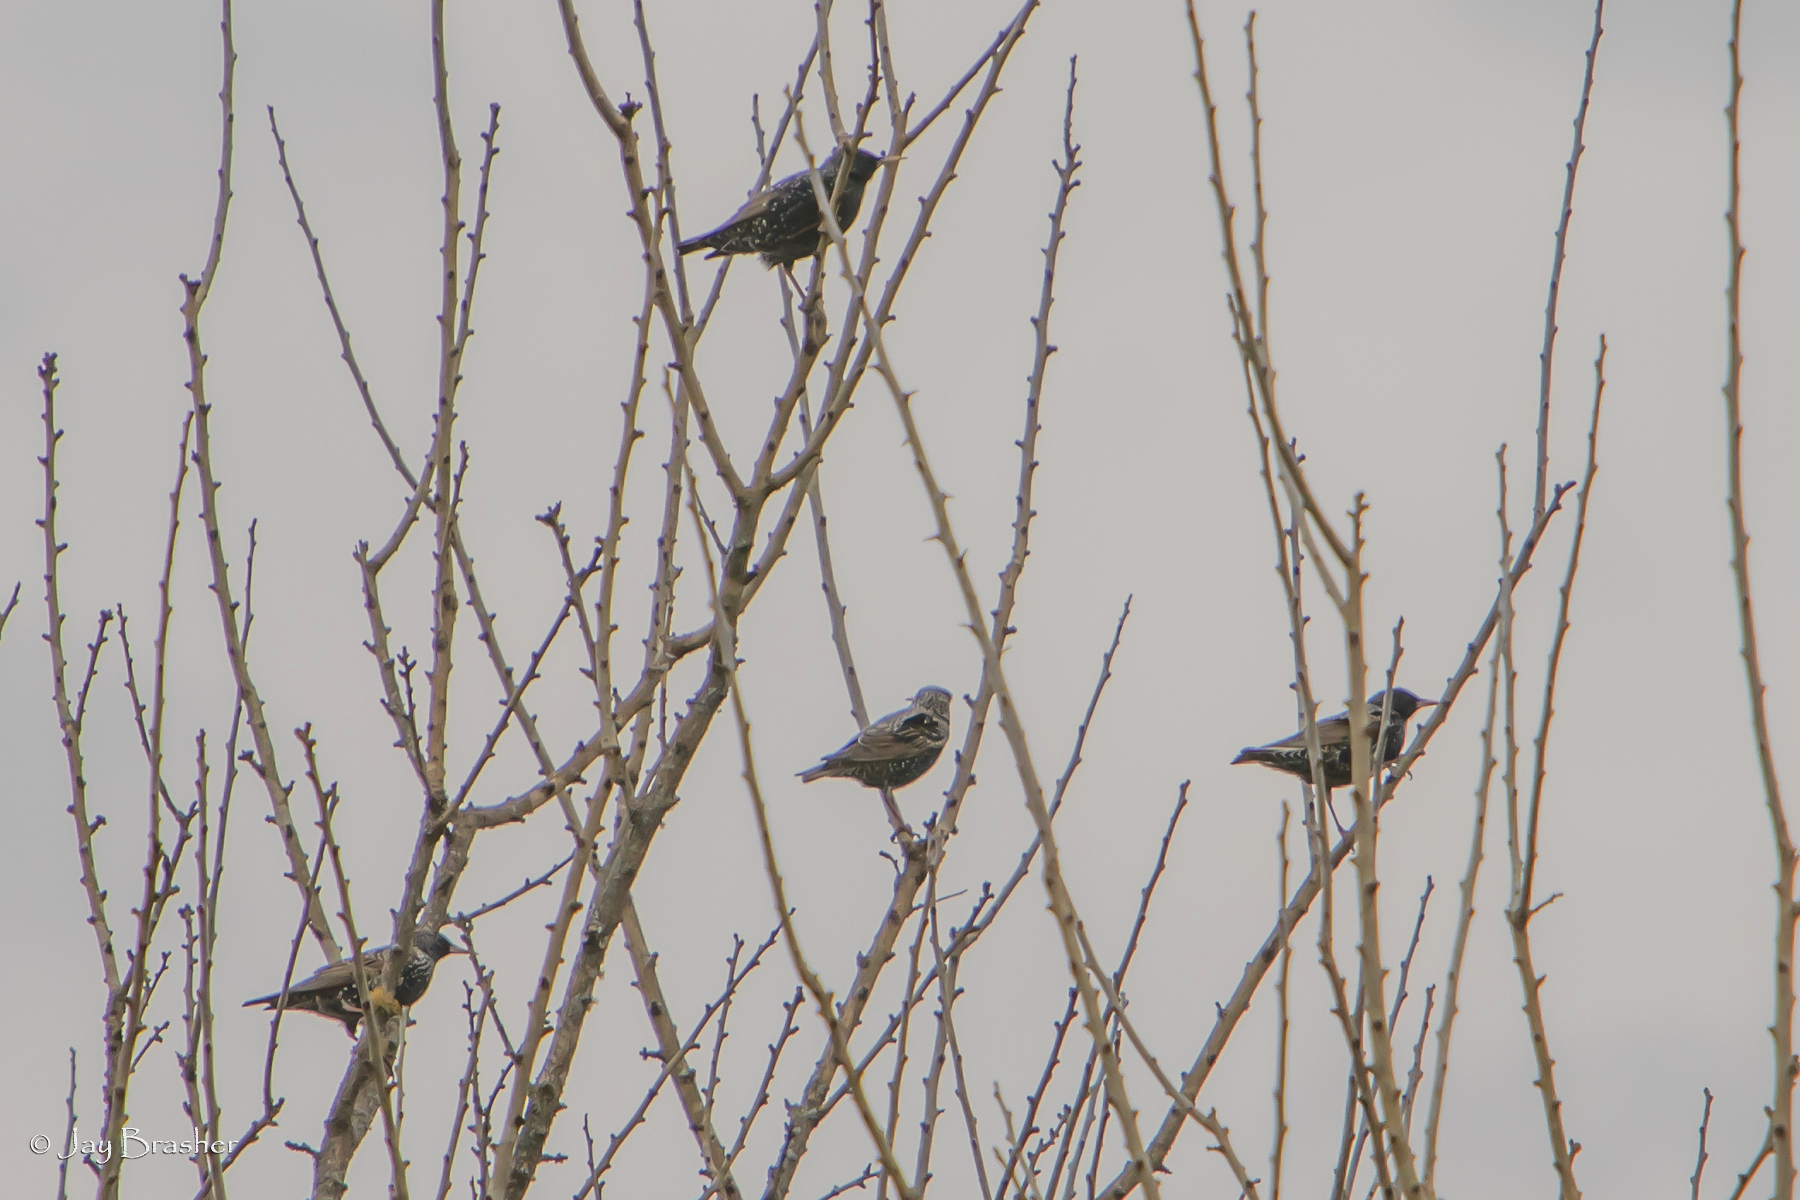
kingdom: Animalia
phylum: Chordata
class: Aves
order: Passeriformes
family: Sturnidae
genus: Sturnus
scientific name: Sturnus vulgaris
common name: Common starling
